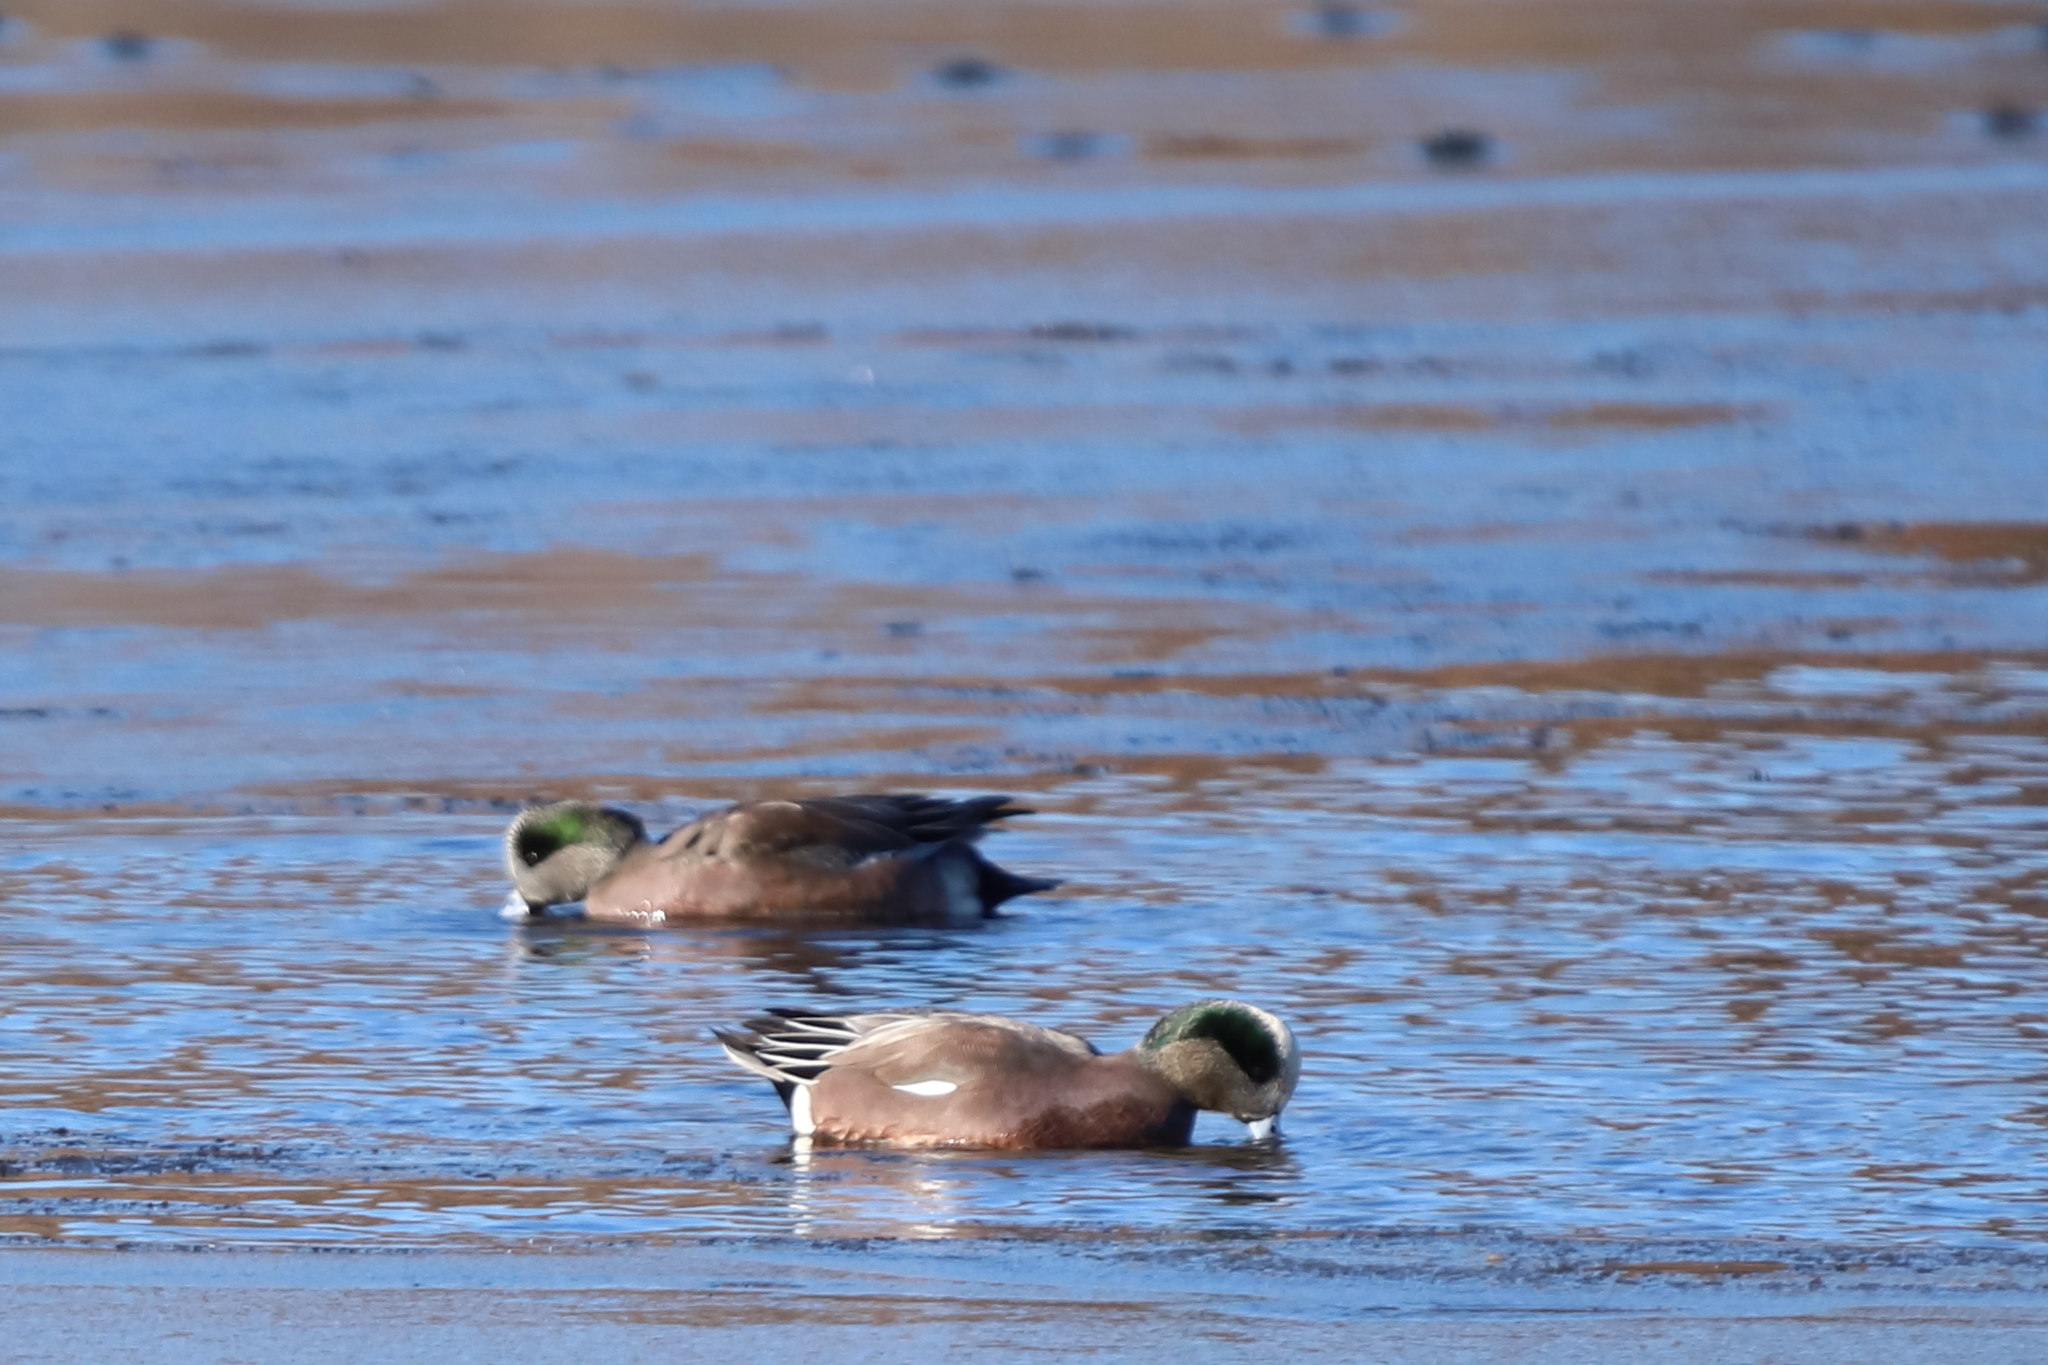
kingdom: Animalia
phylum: Chordata
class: Aves
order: Anseriformes
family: Anatidae
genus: Mareca
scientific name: Mareca americana
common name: American wigeon
